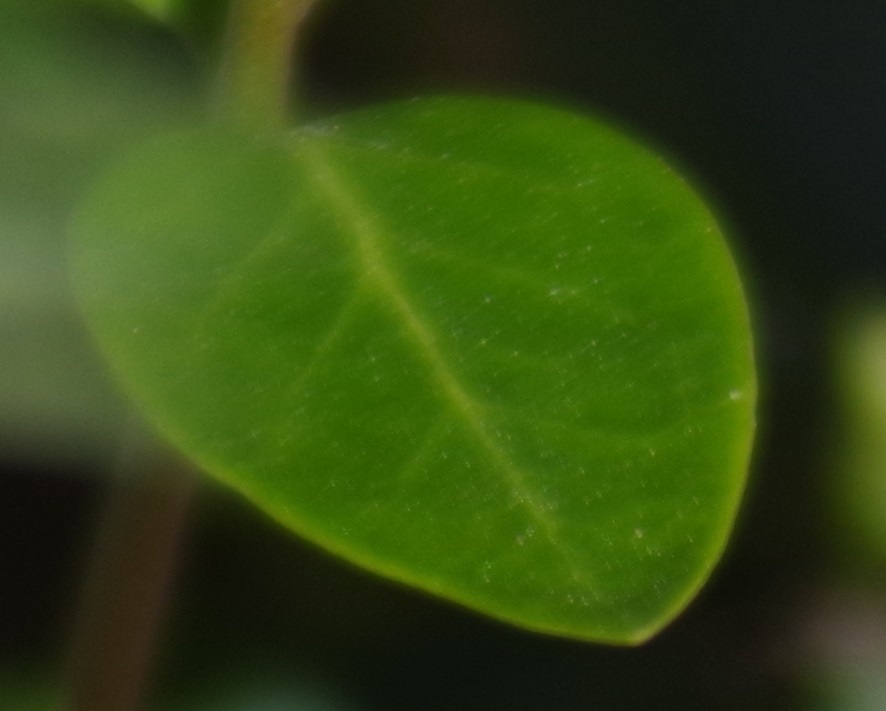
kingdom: Plantae
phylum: Tracheophyta
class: Magnoliopsida
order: Gentianales
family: Apocynaceae
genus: Vinca
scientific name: Vinca minor
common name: Lesser periwinkle
